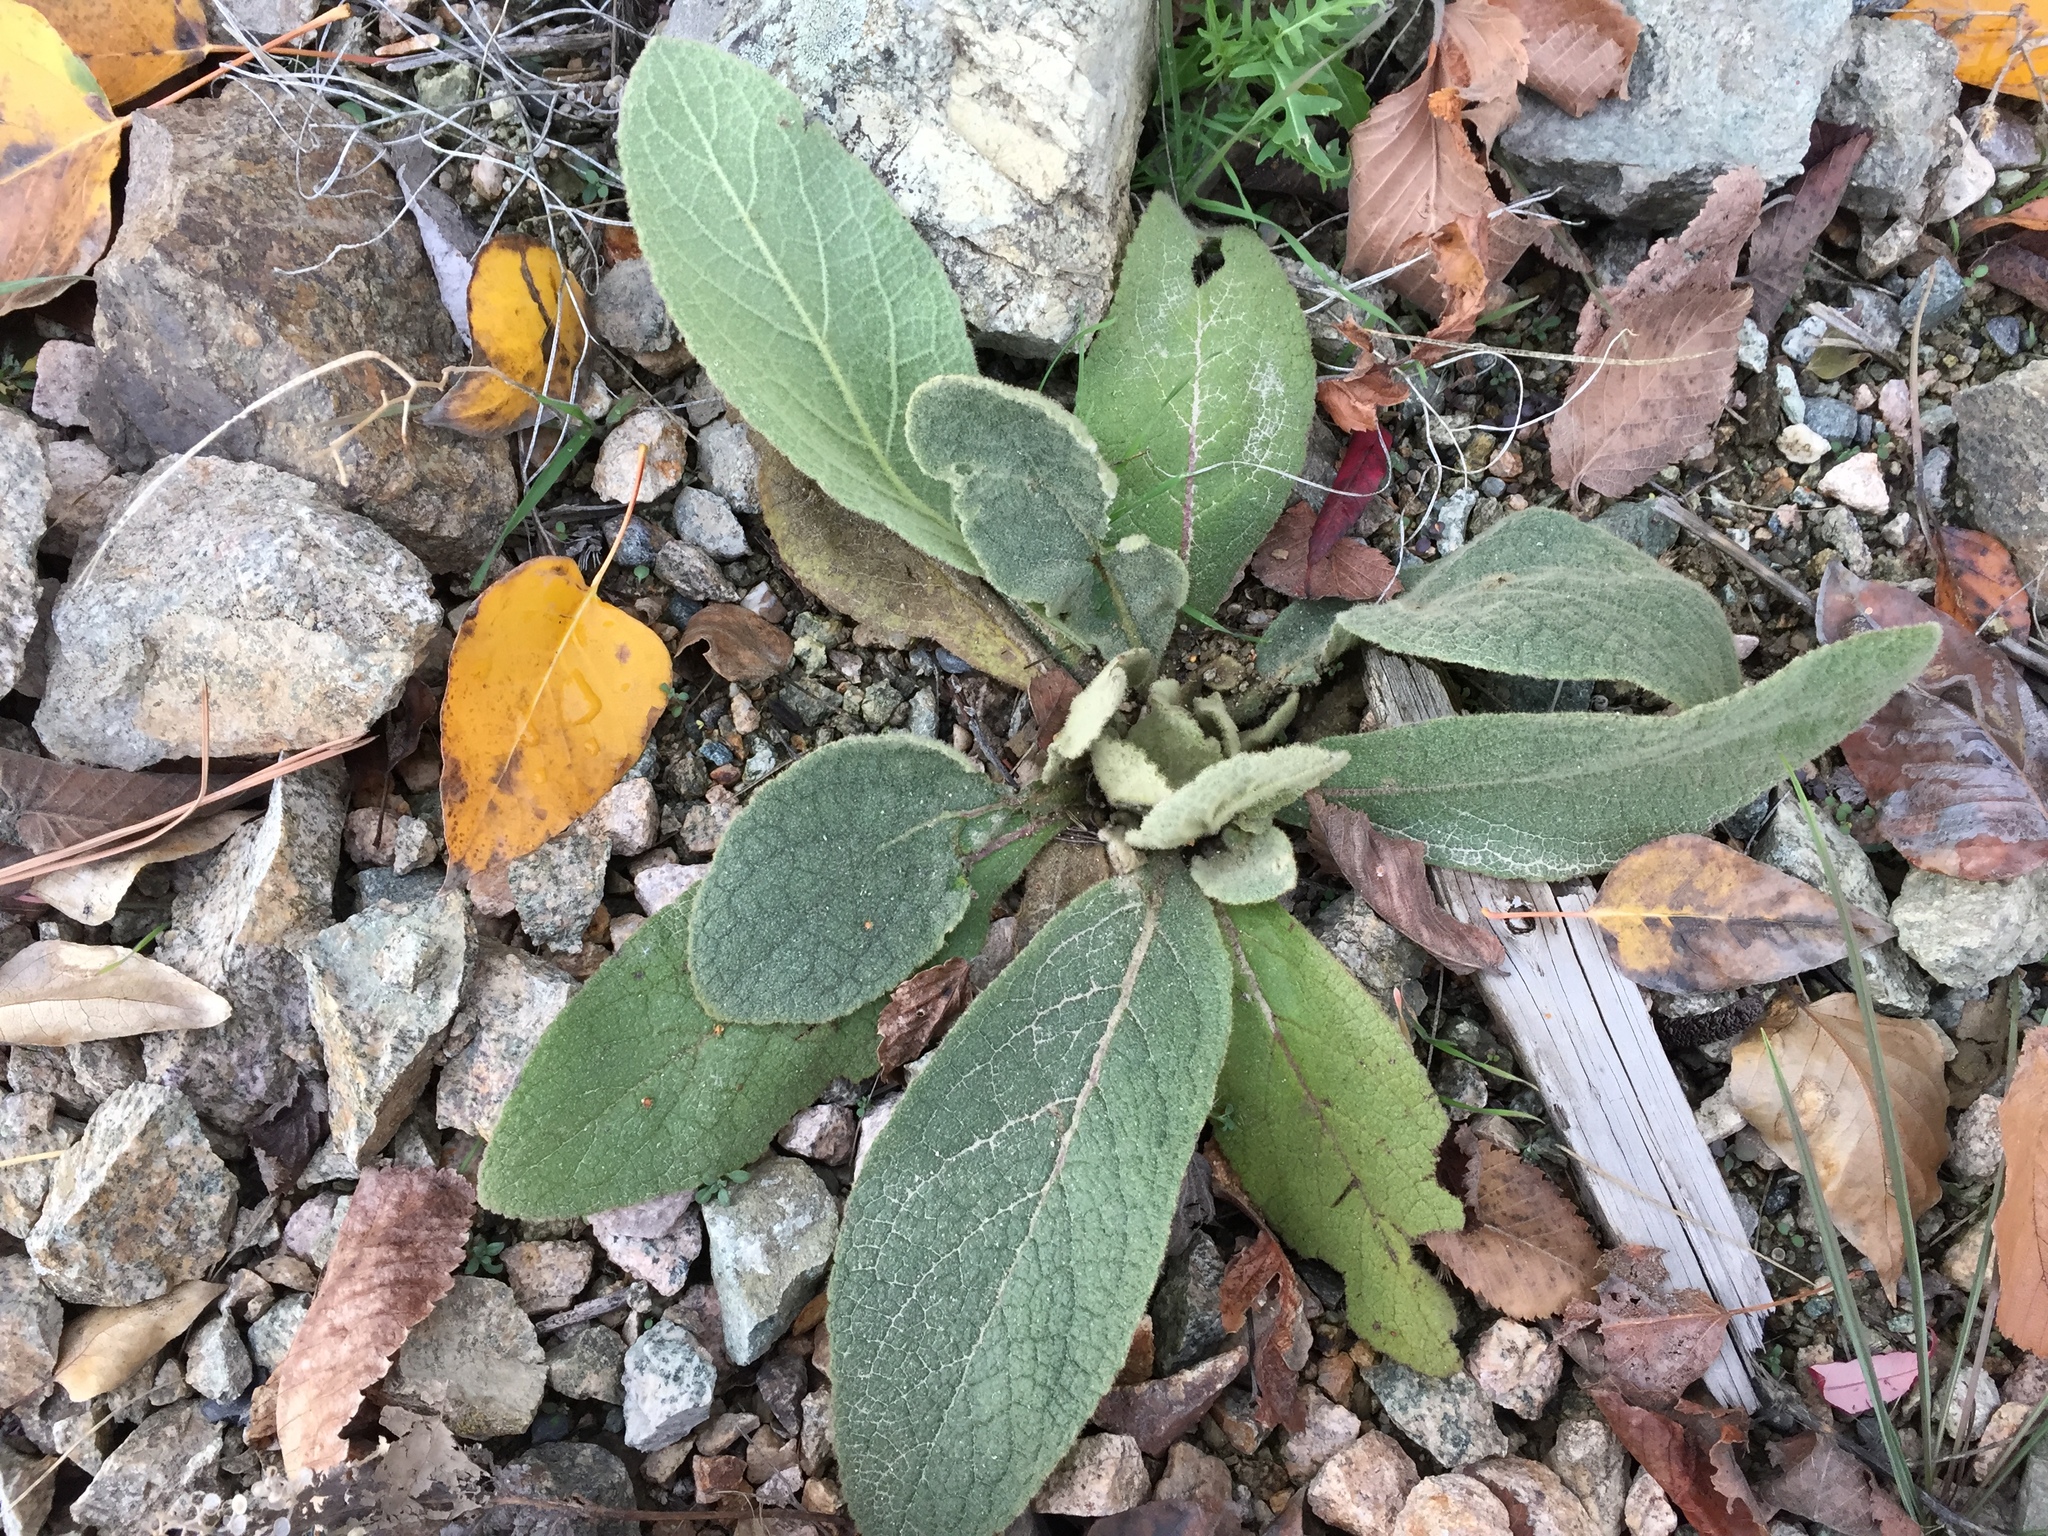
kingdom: Plantae
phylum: Tracheophyta
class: Magnoliopsida
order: Lamiales
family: Scrophulariaceae
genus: Verbascum
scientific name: Verbascum thapsus
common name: Common mullein
